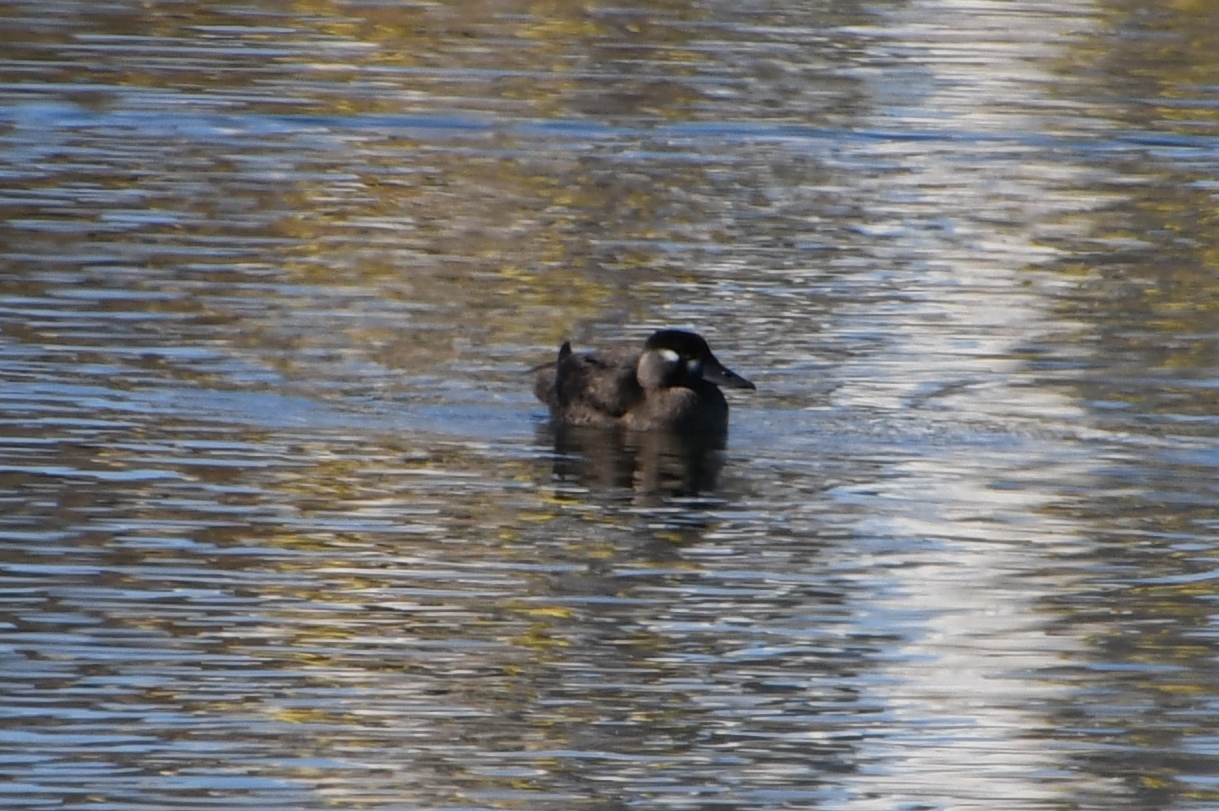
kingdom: Animalia
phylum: Chordata
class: Aves
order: Anseriformes
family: Anatidae
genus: Melanitta
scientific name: Melanitta perspicillata
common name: Surf scoter
